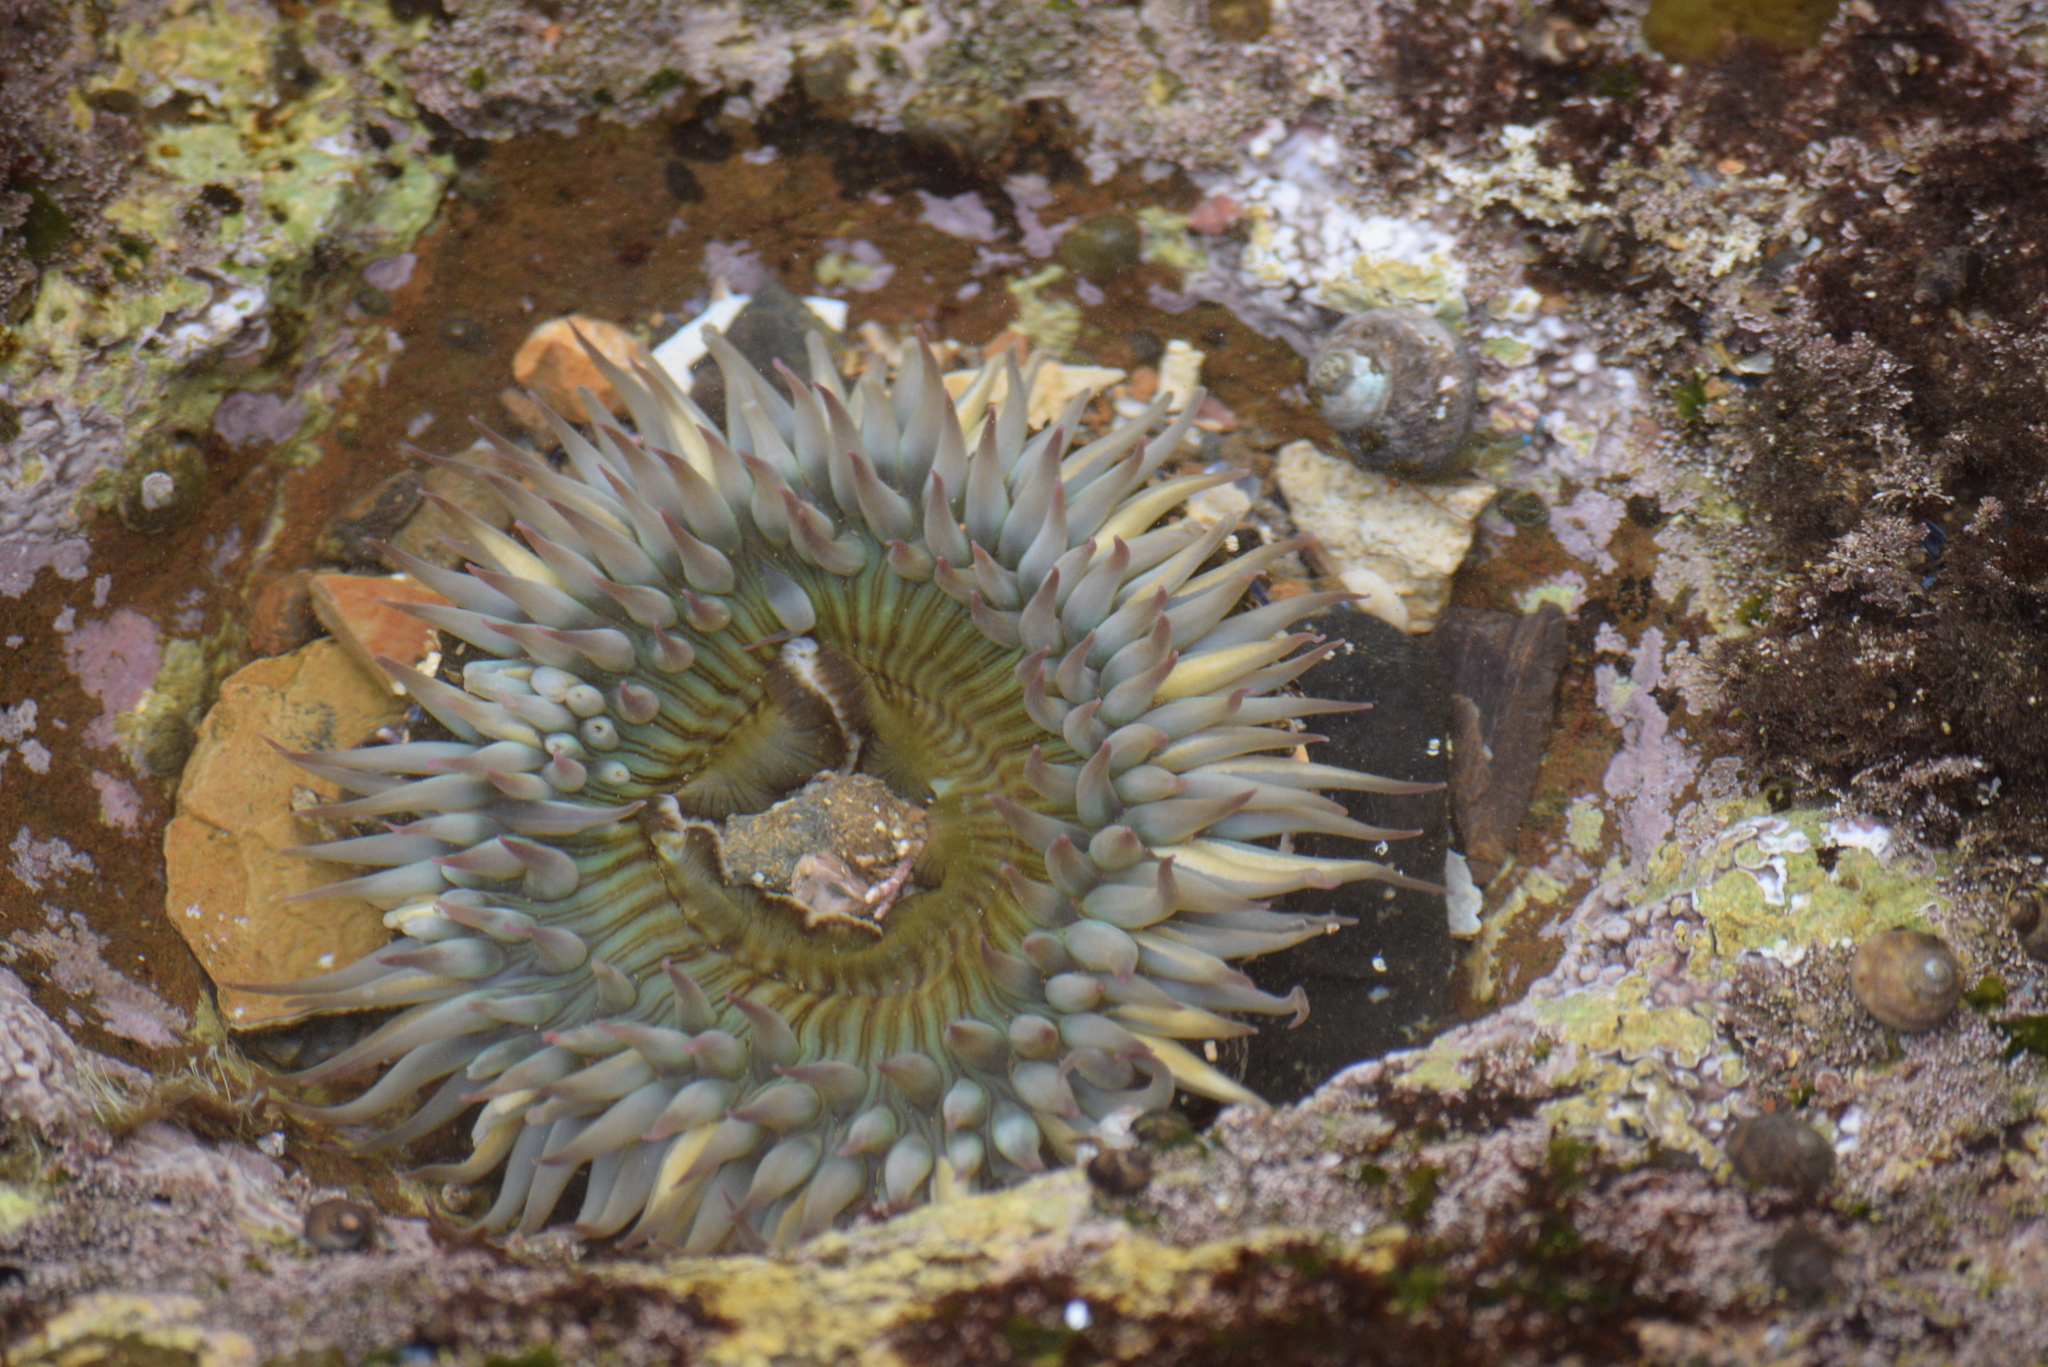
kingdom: Animalia
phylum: Cnidaria
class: Anthozoa
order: Actiniaria
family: Actiniidae
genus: Anthopleura
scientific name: Anthopleura sola
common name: Sun anemone
